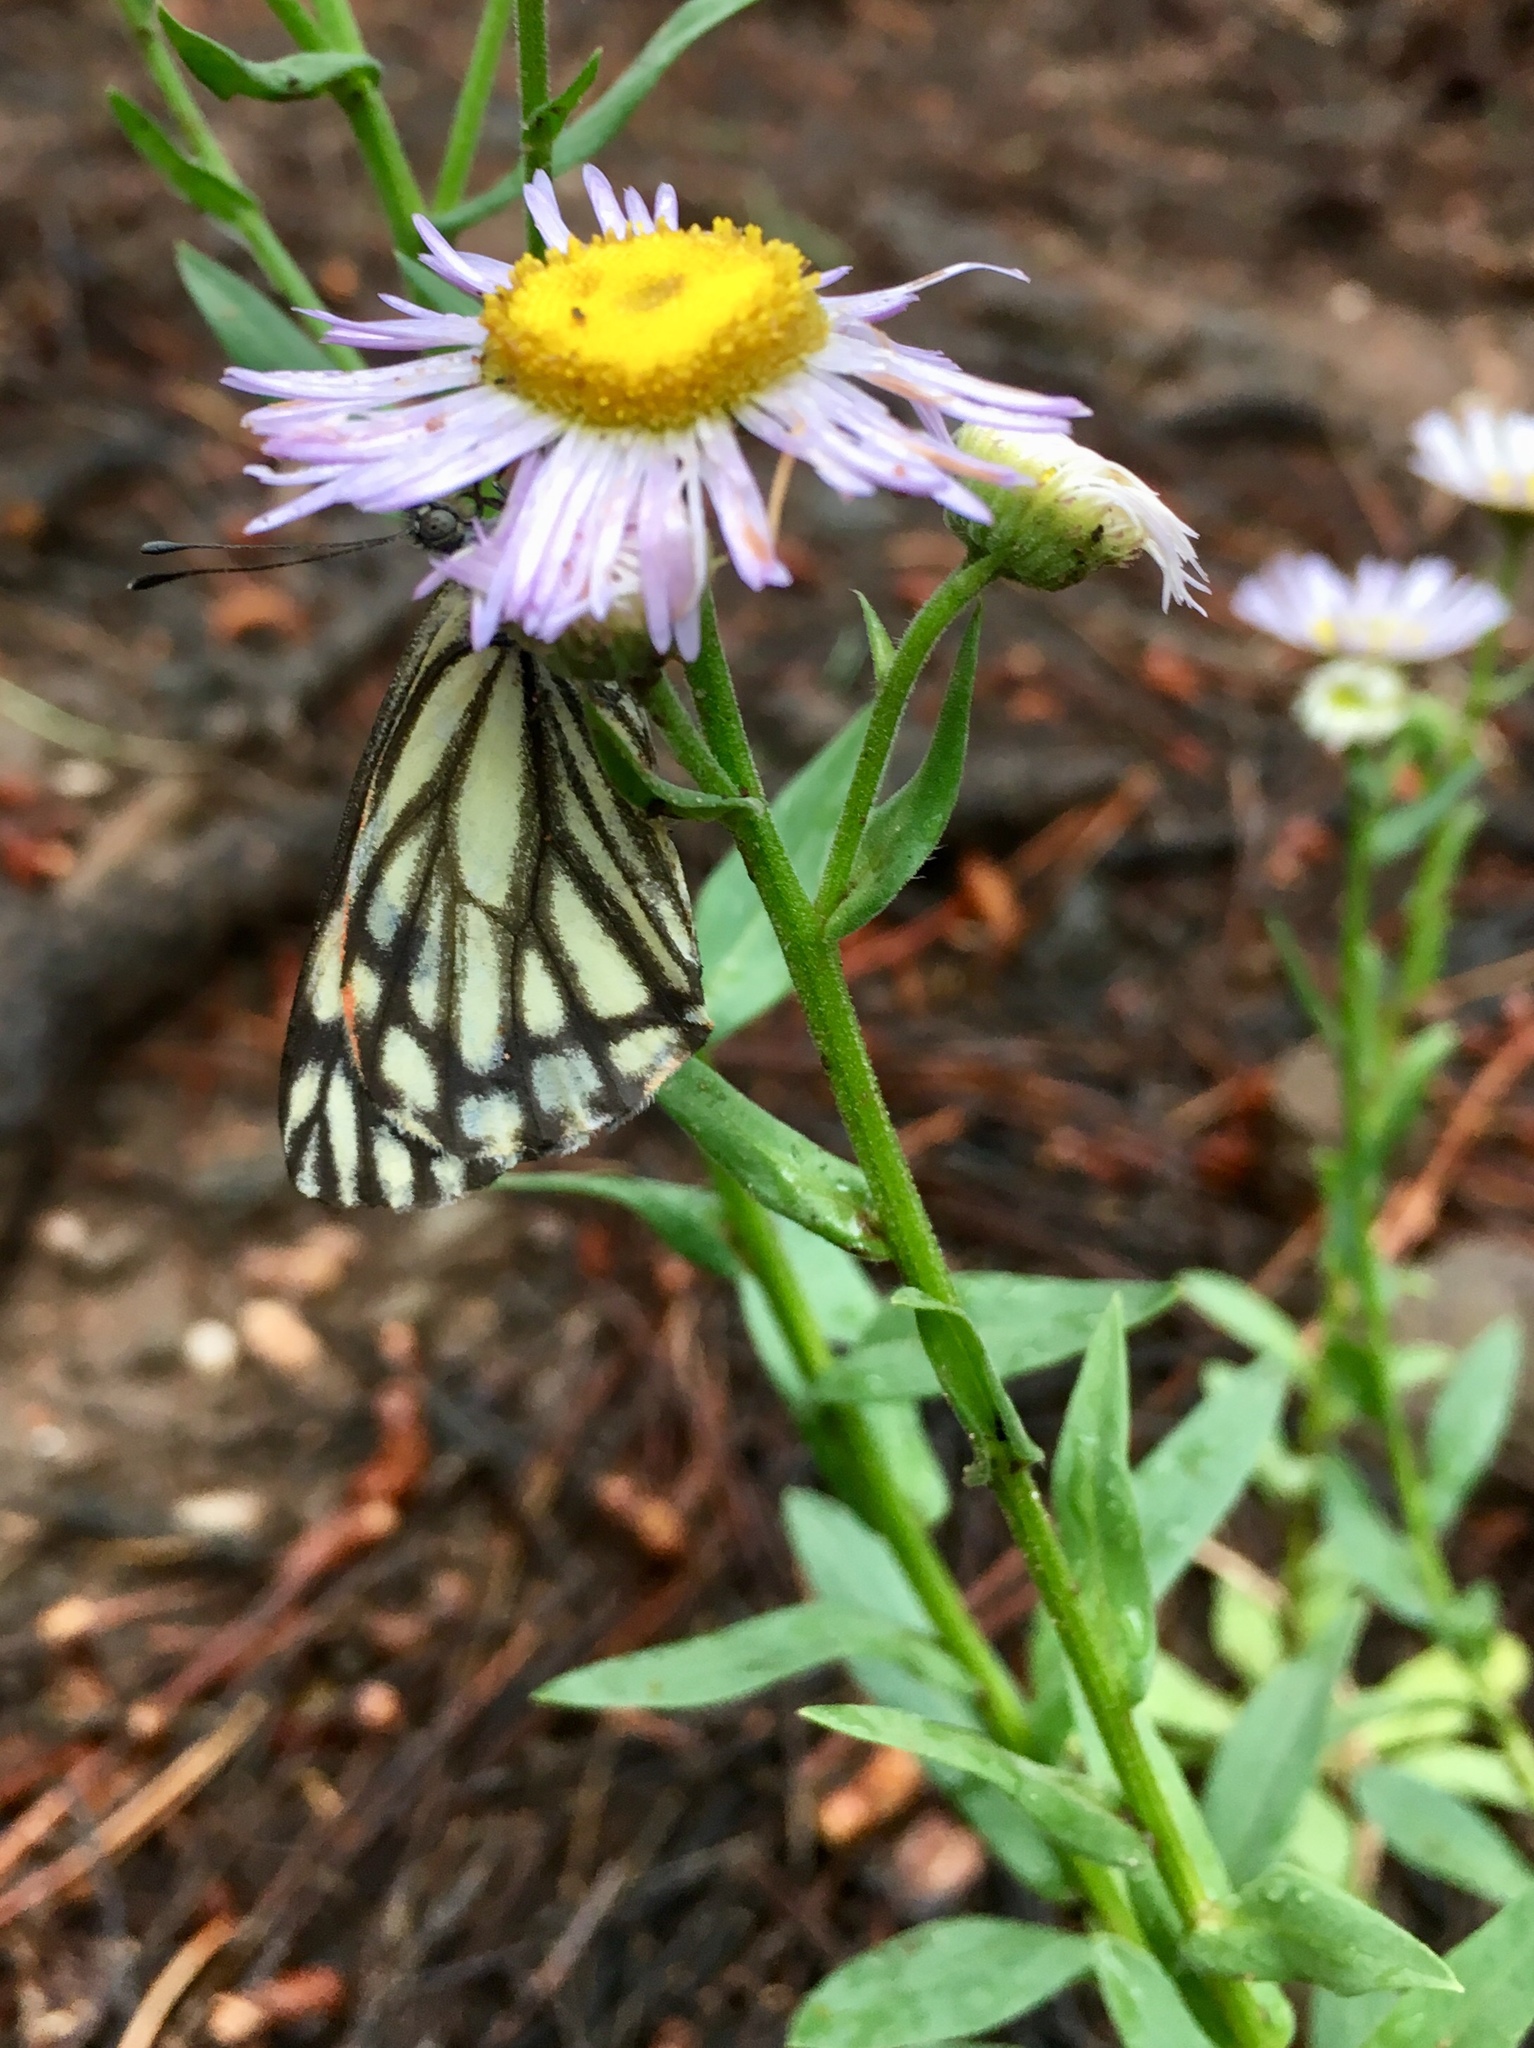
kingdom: Animalia
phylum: Arthropoda
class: Insecta
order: Lepidoptera
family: Pieridae
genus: Neophasia
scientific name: Neophasia menapia
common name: Pine white
